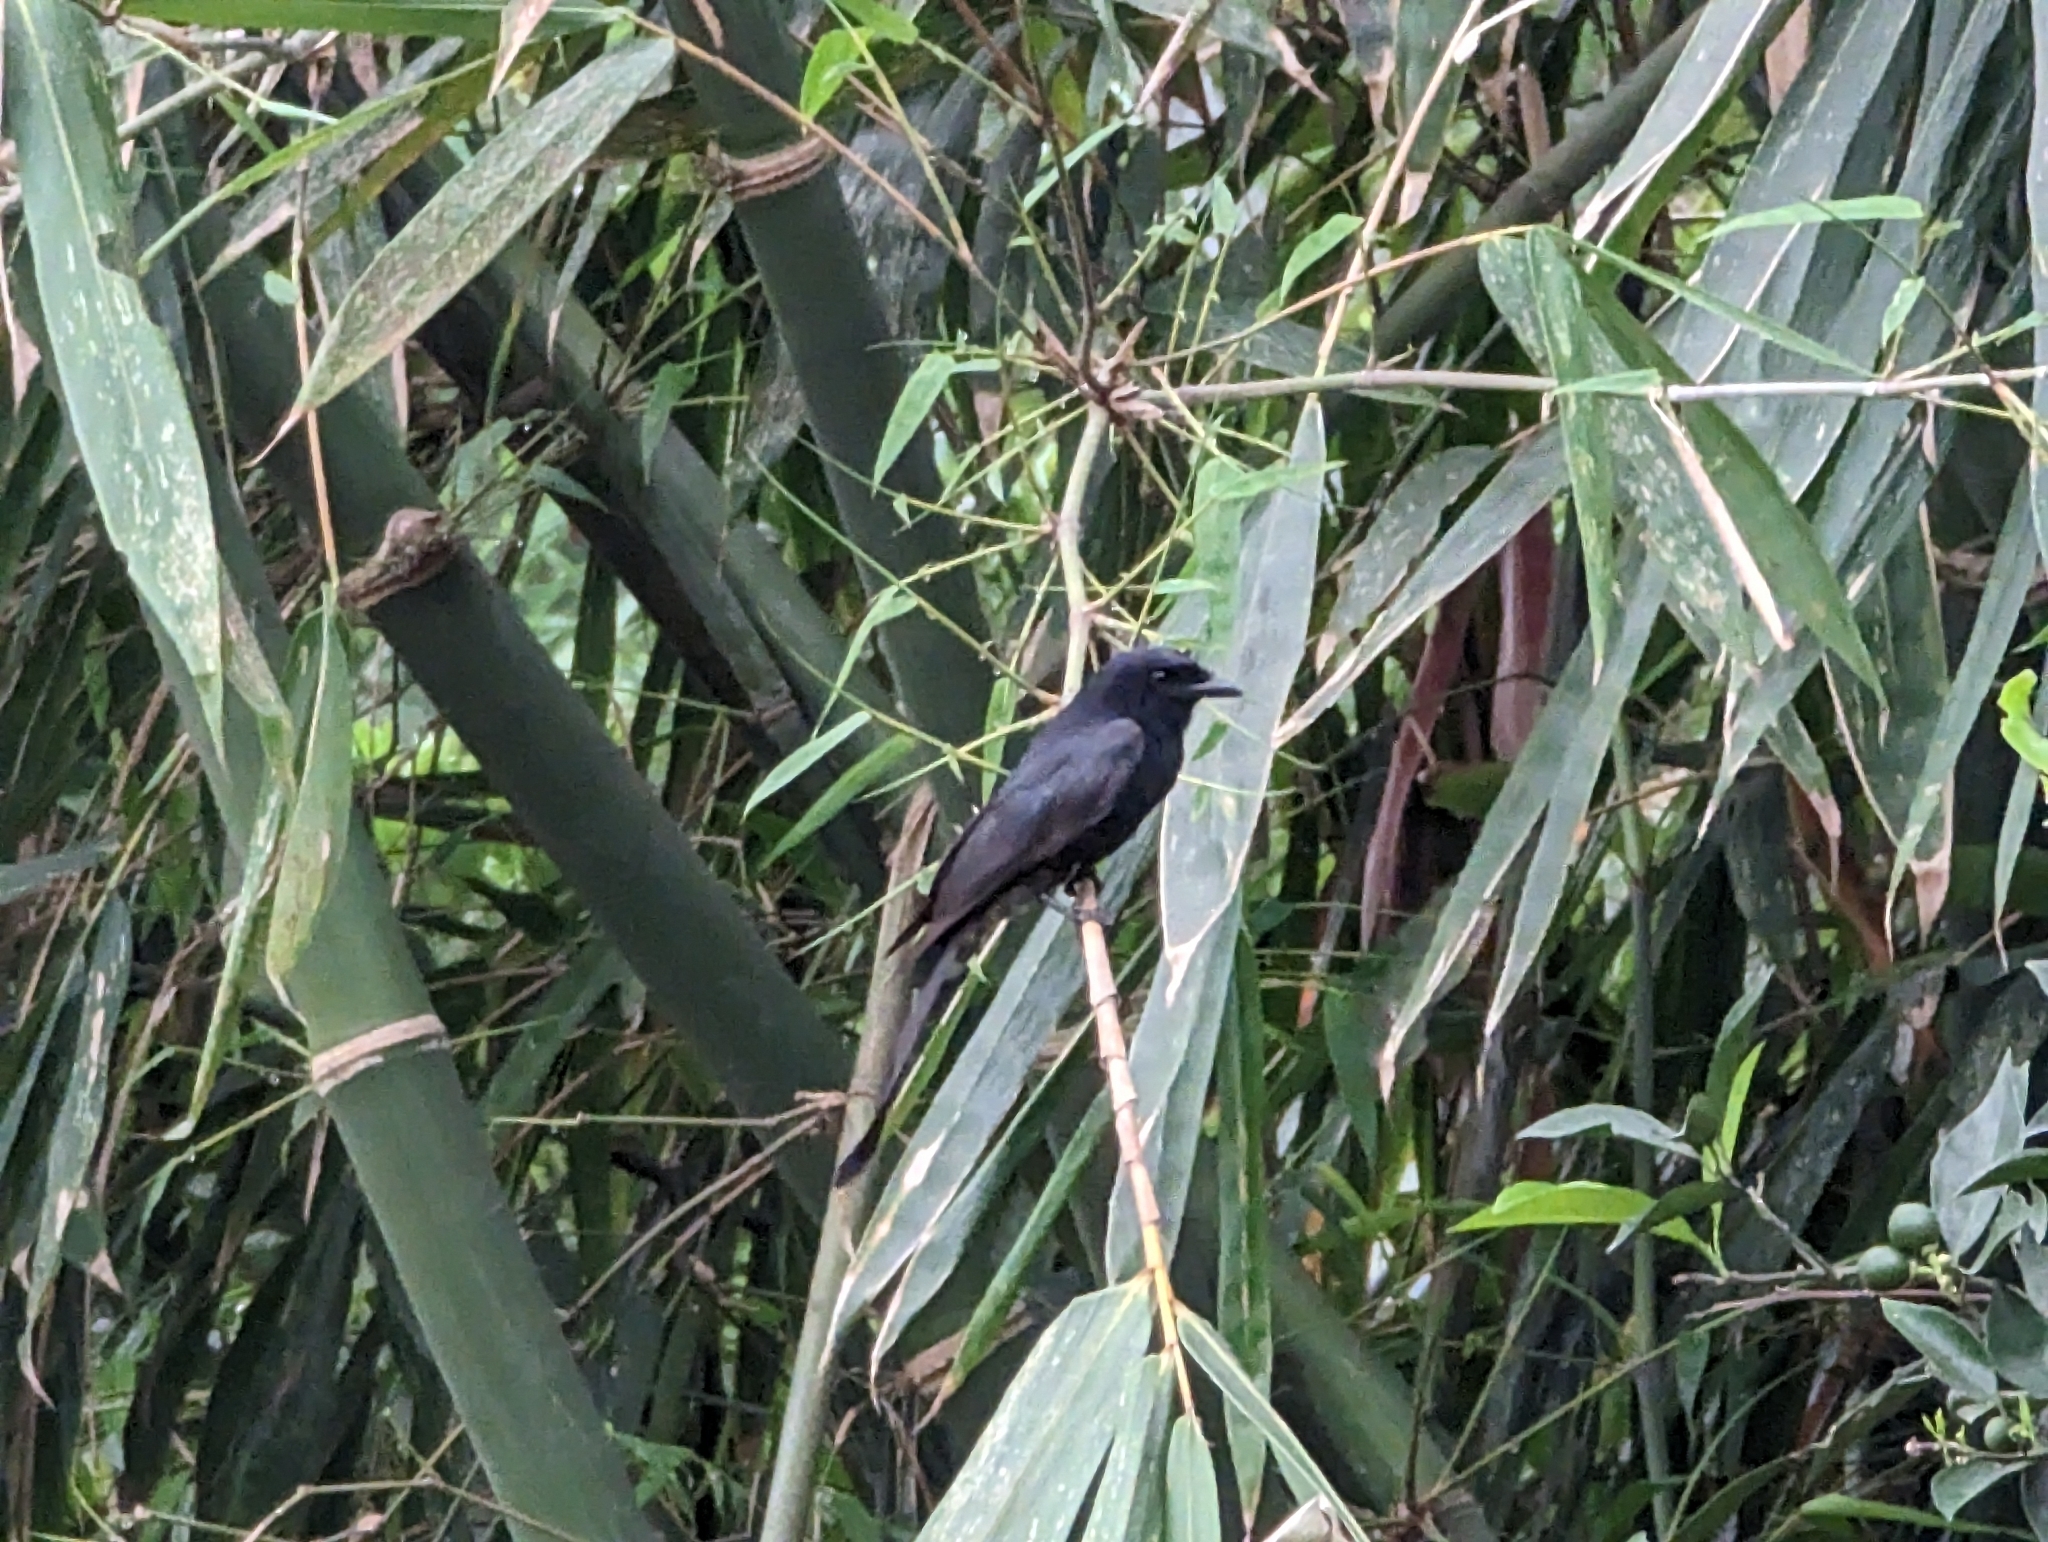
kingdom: Animalia
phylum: Chordata
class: Aves
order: Passeriformes
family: Dicruridae
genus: Dicrurus
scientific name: Dicrurus macrocercus
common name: Black drongo
